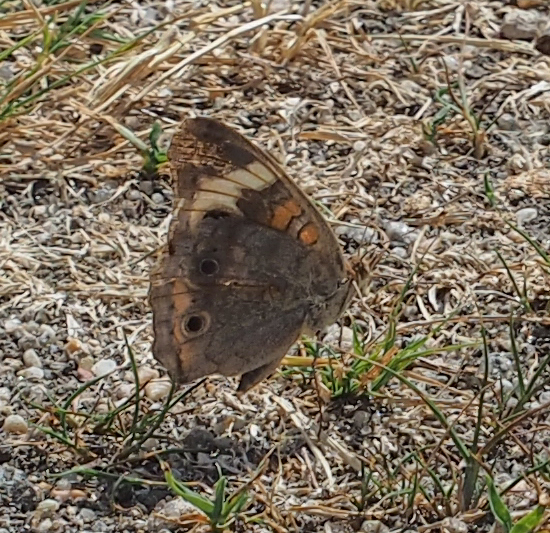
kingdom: Animalia
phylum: Arthropoda
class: Insecta
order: Lepidoptera
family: Nymphalidae
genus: Junonia
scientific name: Junonia coenia
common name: Common buckeye
